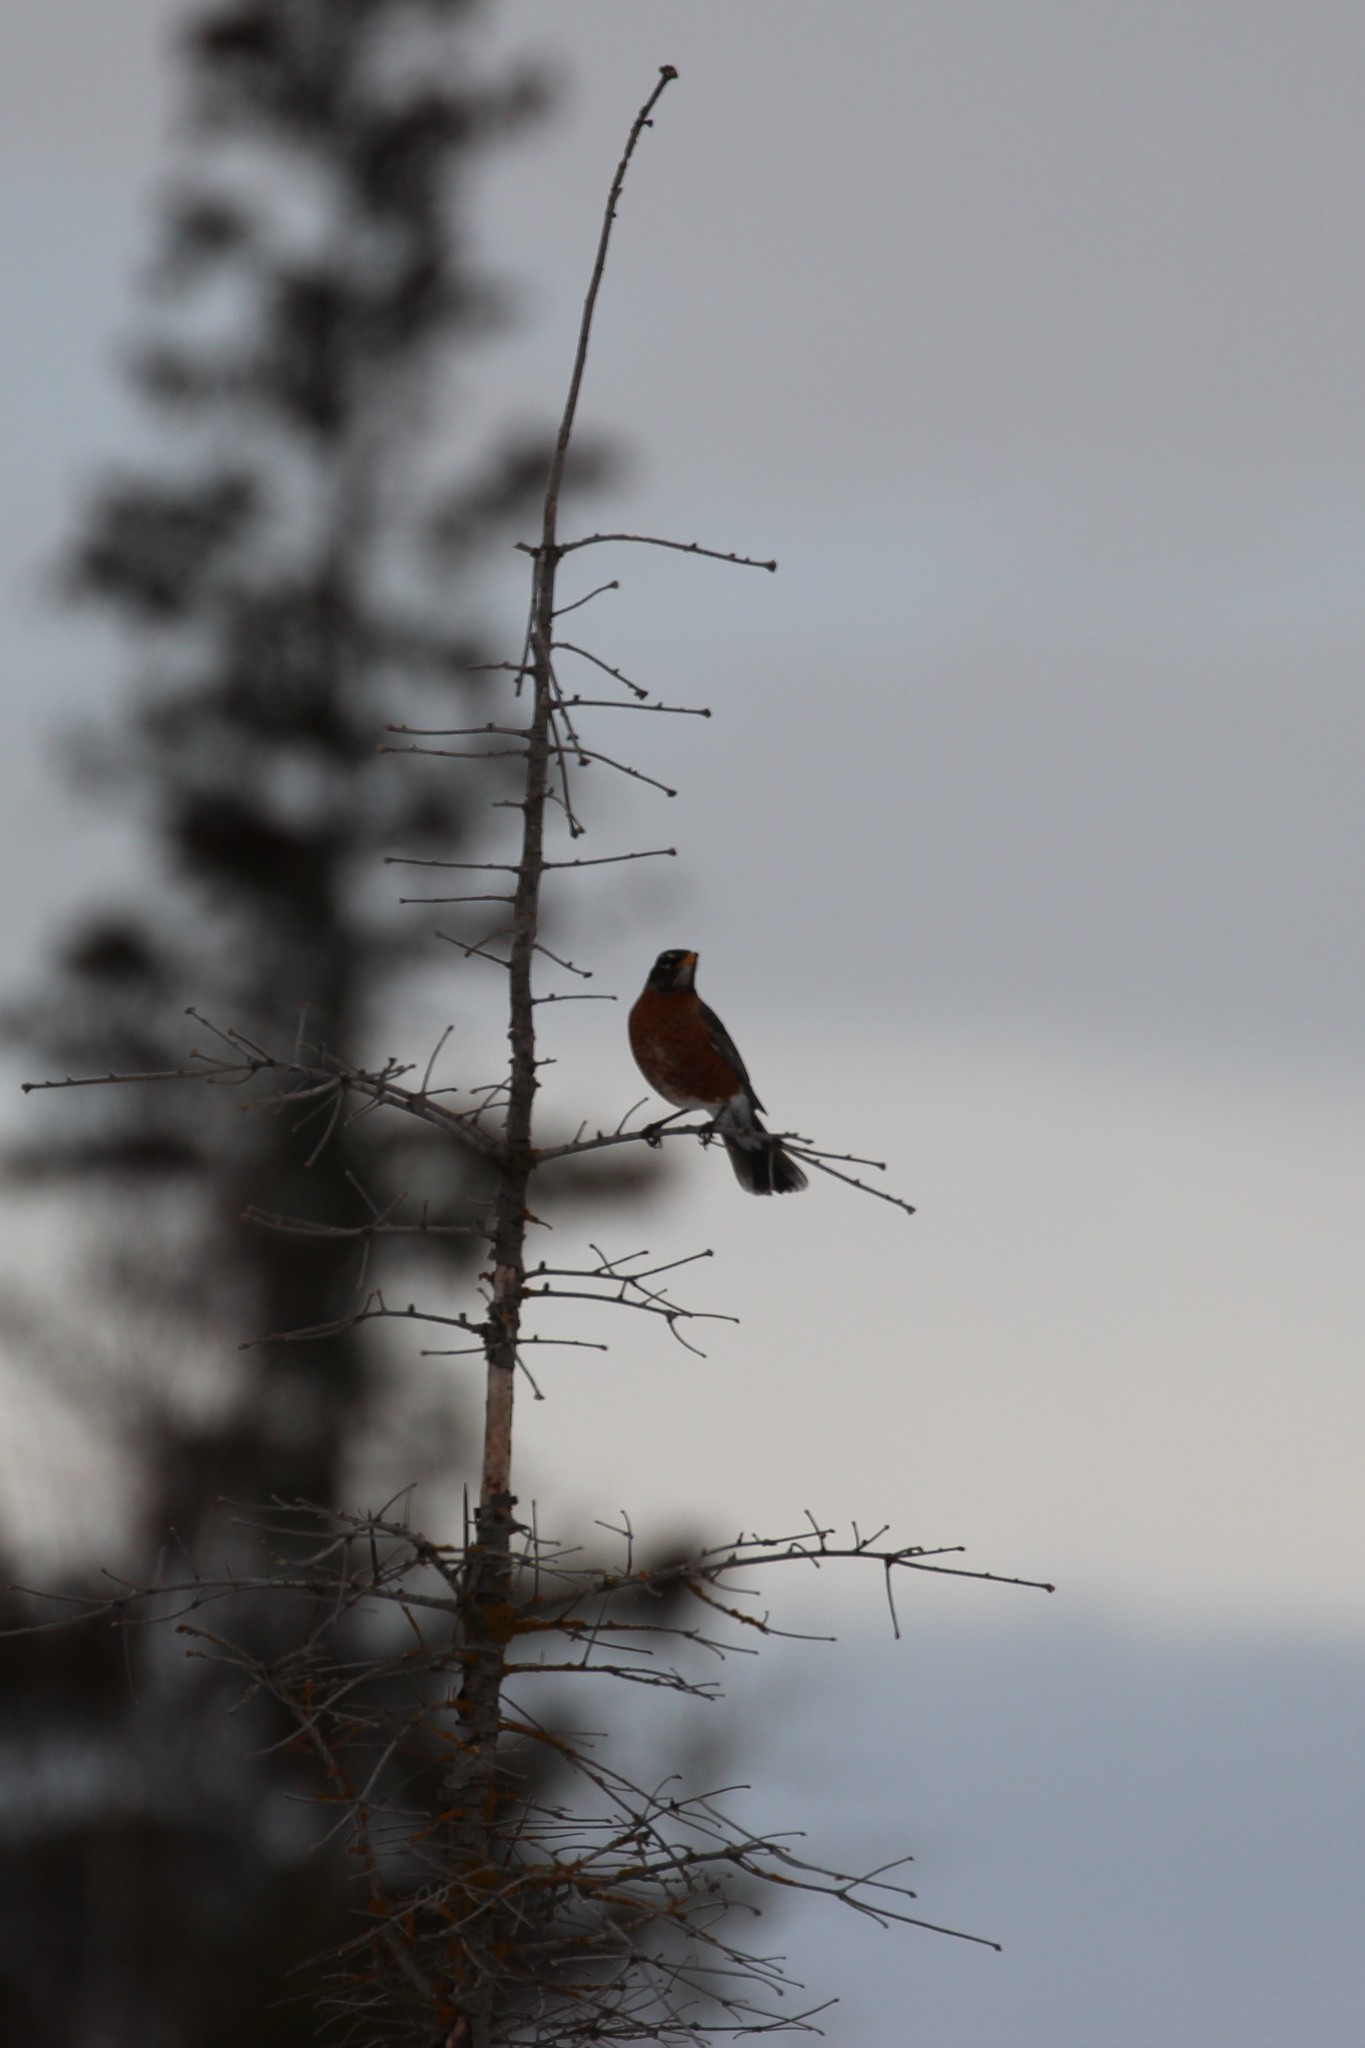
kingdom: Animalia
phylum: Chordata
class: Aves
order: Passeriformes
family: Turdidae
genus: Turdus
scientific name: Turdus migratorius
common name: American robin
